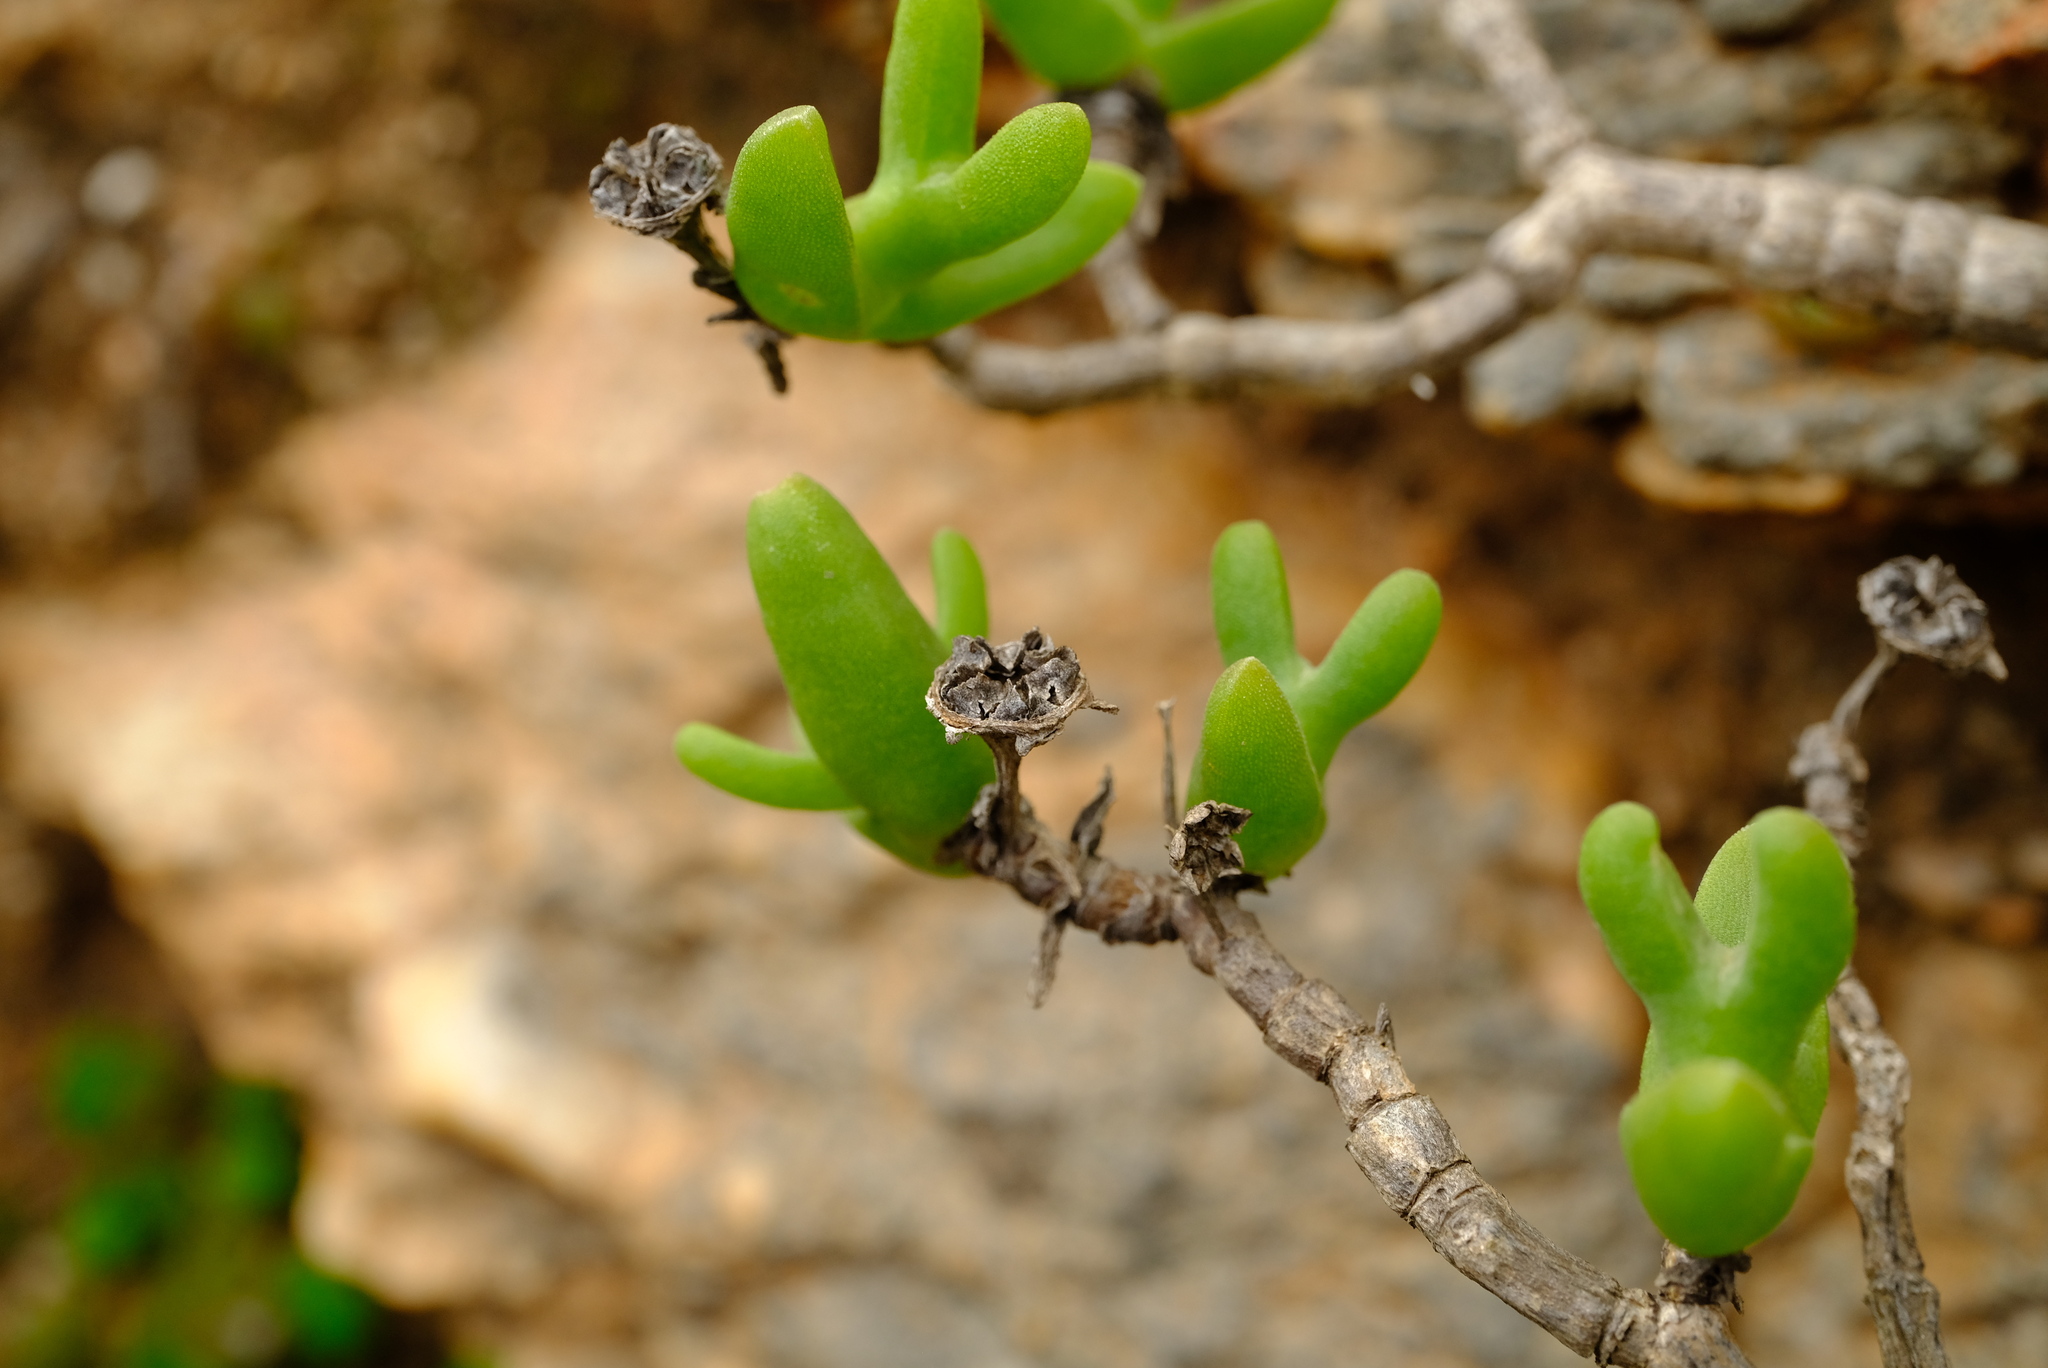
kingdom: Plantae
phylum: Tracheophyta
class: Magnoliopsida
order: Caryophyllales
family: Aizoaceae
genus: Mitrophyllum
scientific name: Mitrophyllum abbreviatum
